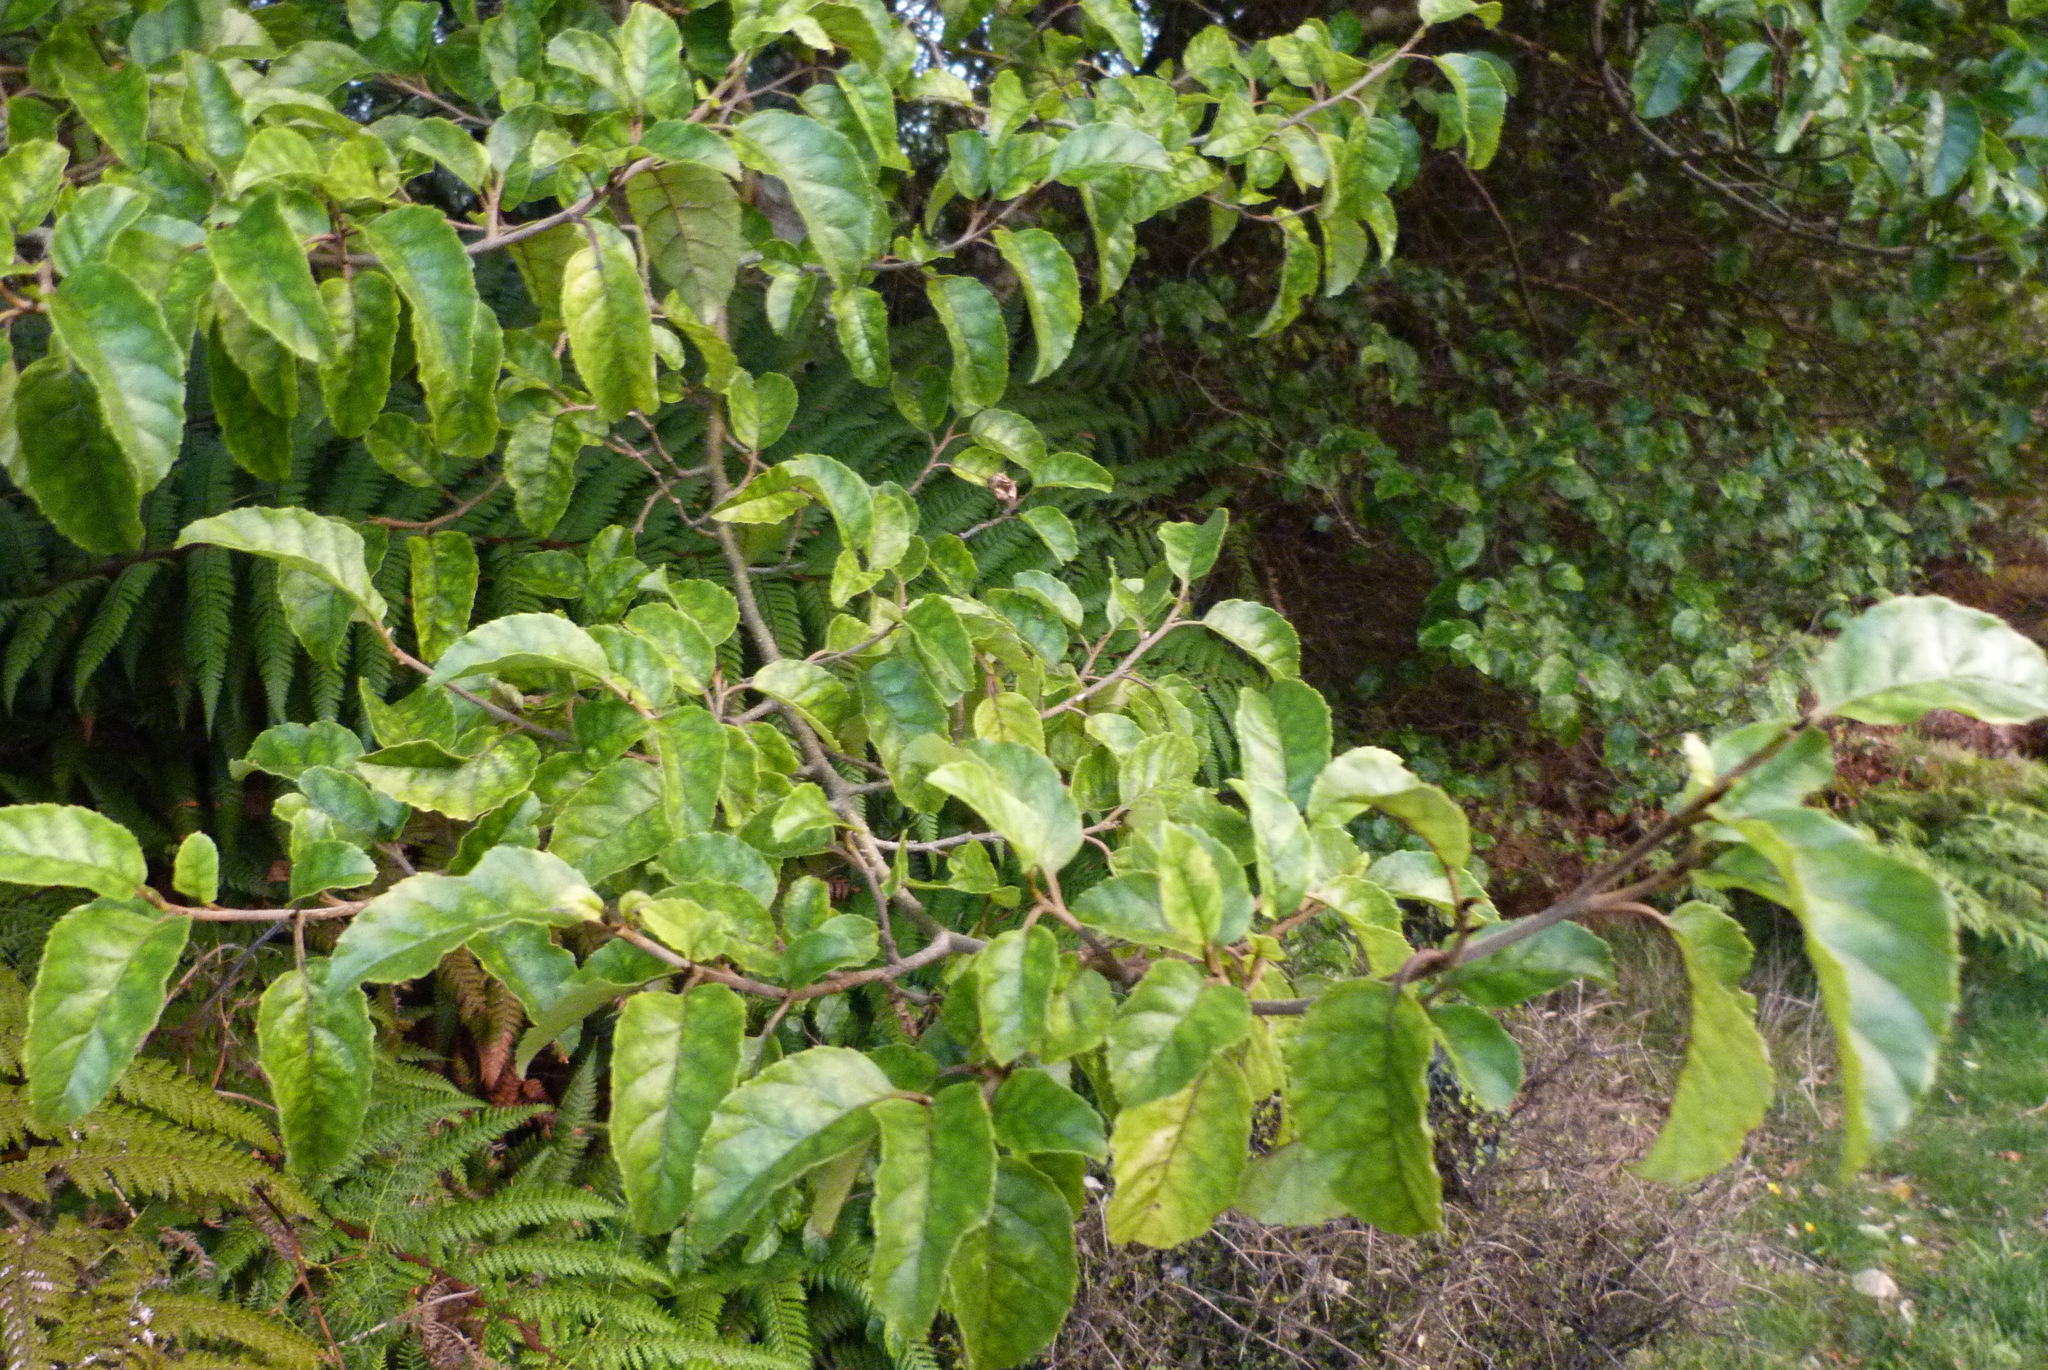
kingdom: Plantae
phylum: Tracheophyta
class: Magnoliopsida
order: Asterales
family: Rousseaceae
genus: Carpodetus
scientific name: Carpodetus serratus
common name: White mapau
